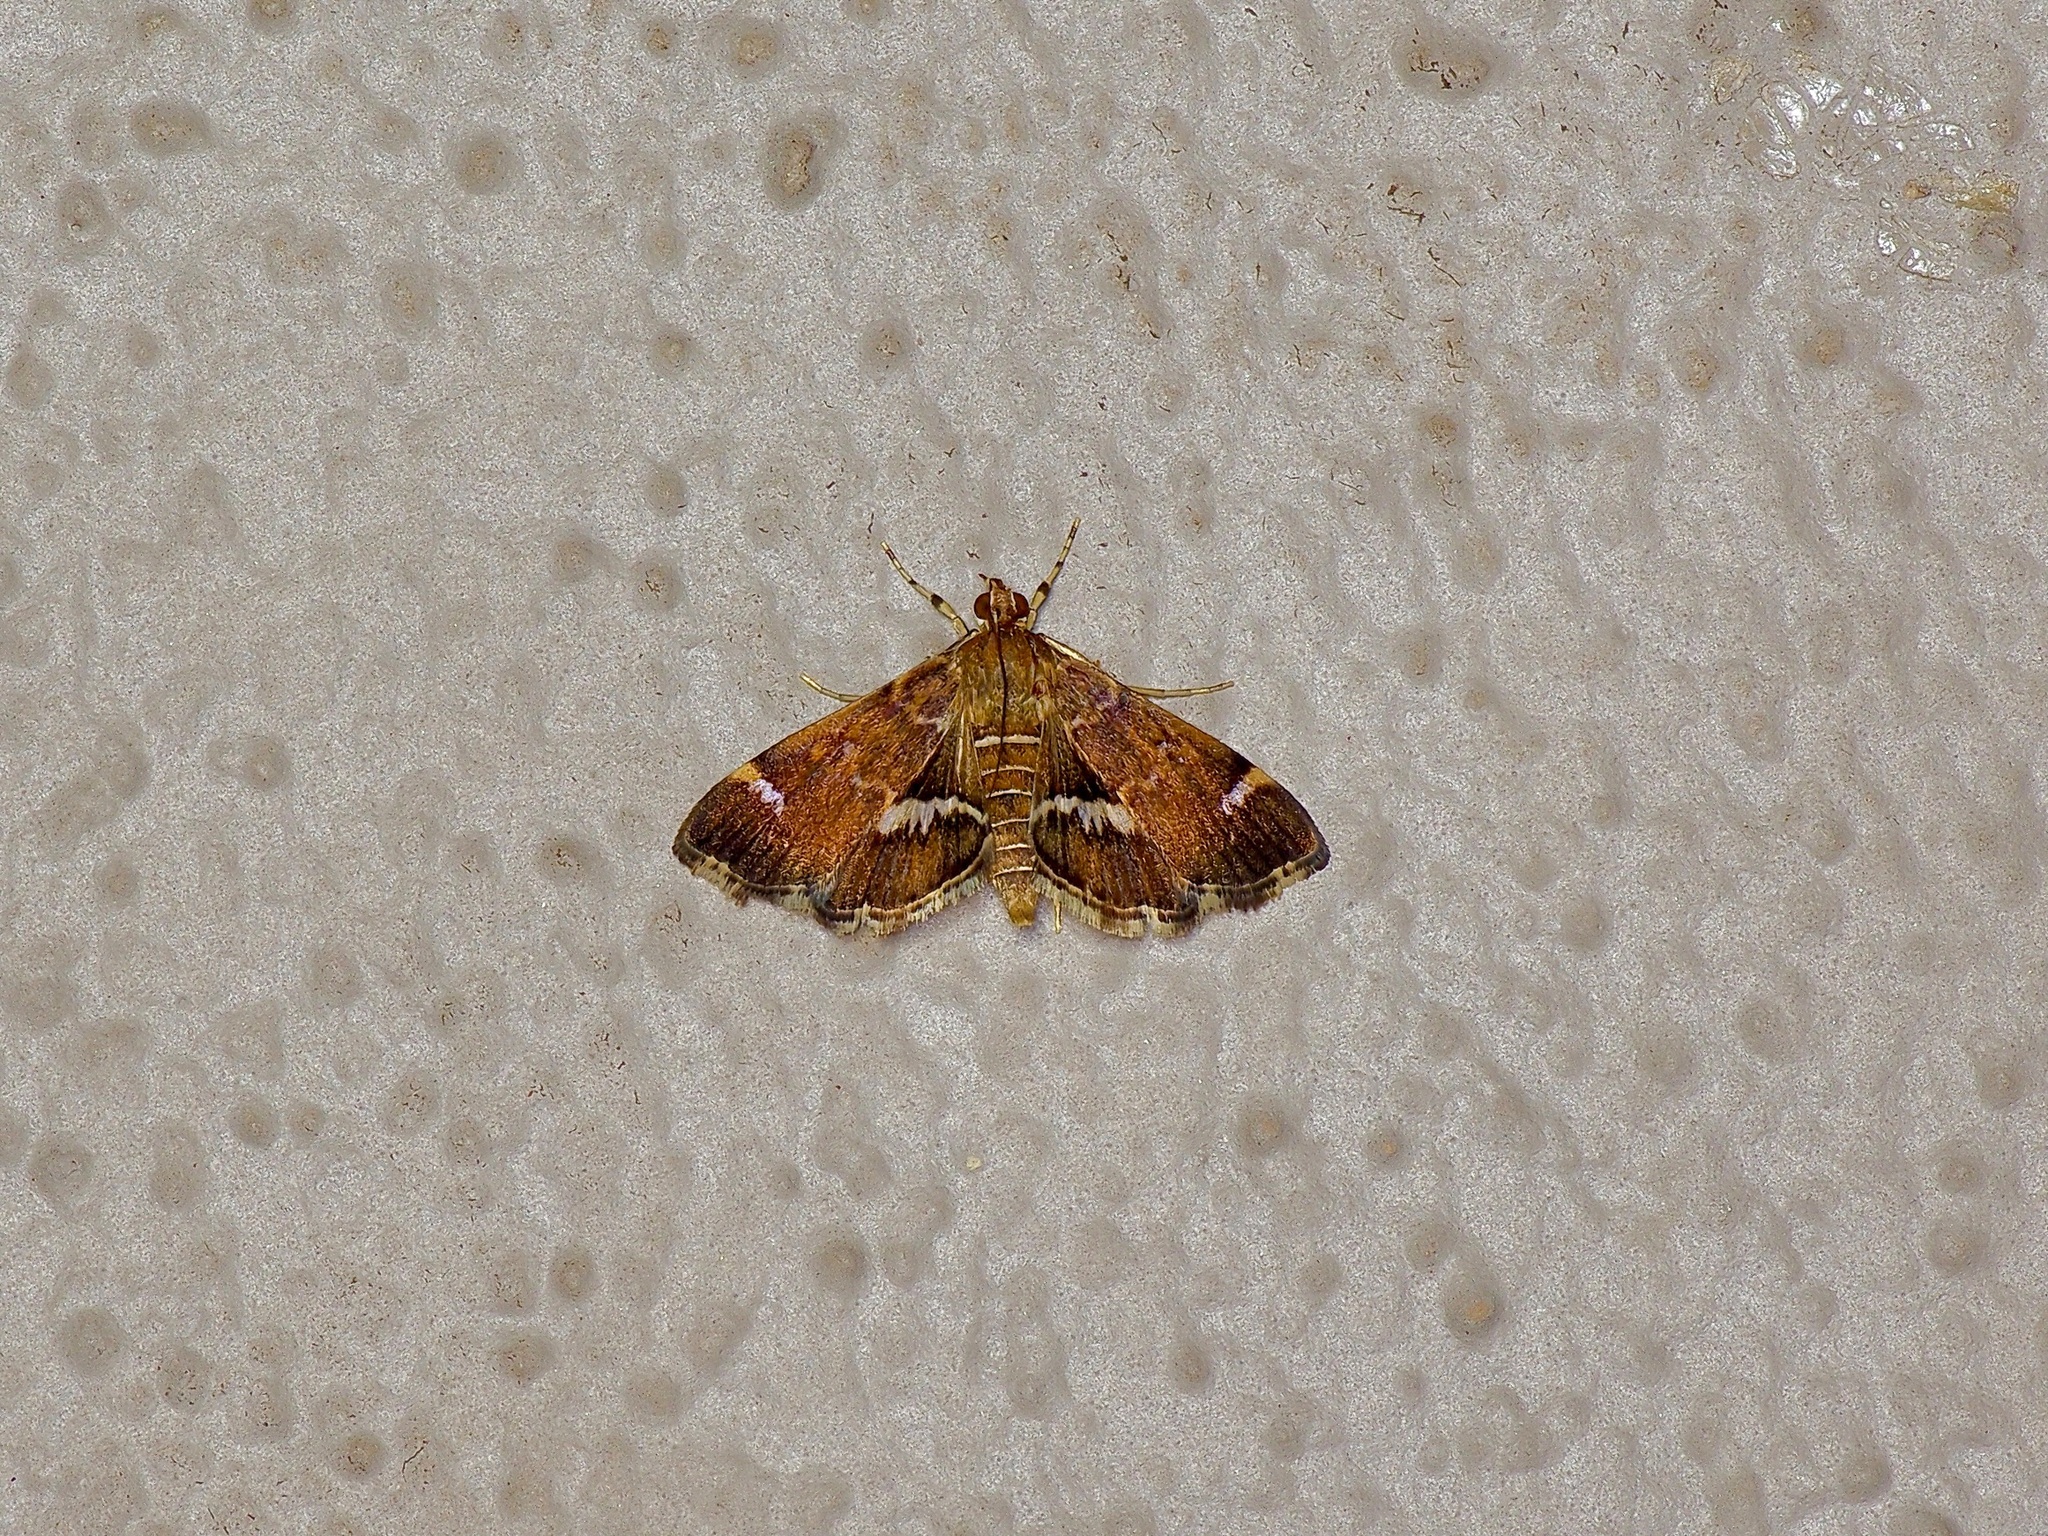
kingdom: Animalia
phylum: Arthropoda
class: Insecta
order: Lepidoptera
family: Crambidae
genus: Hymenia
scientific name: Hymenia perspectalis
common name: Spotted beet webworm
